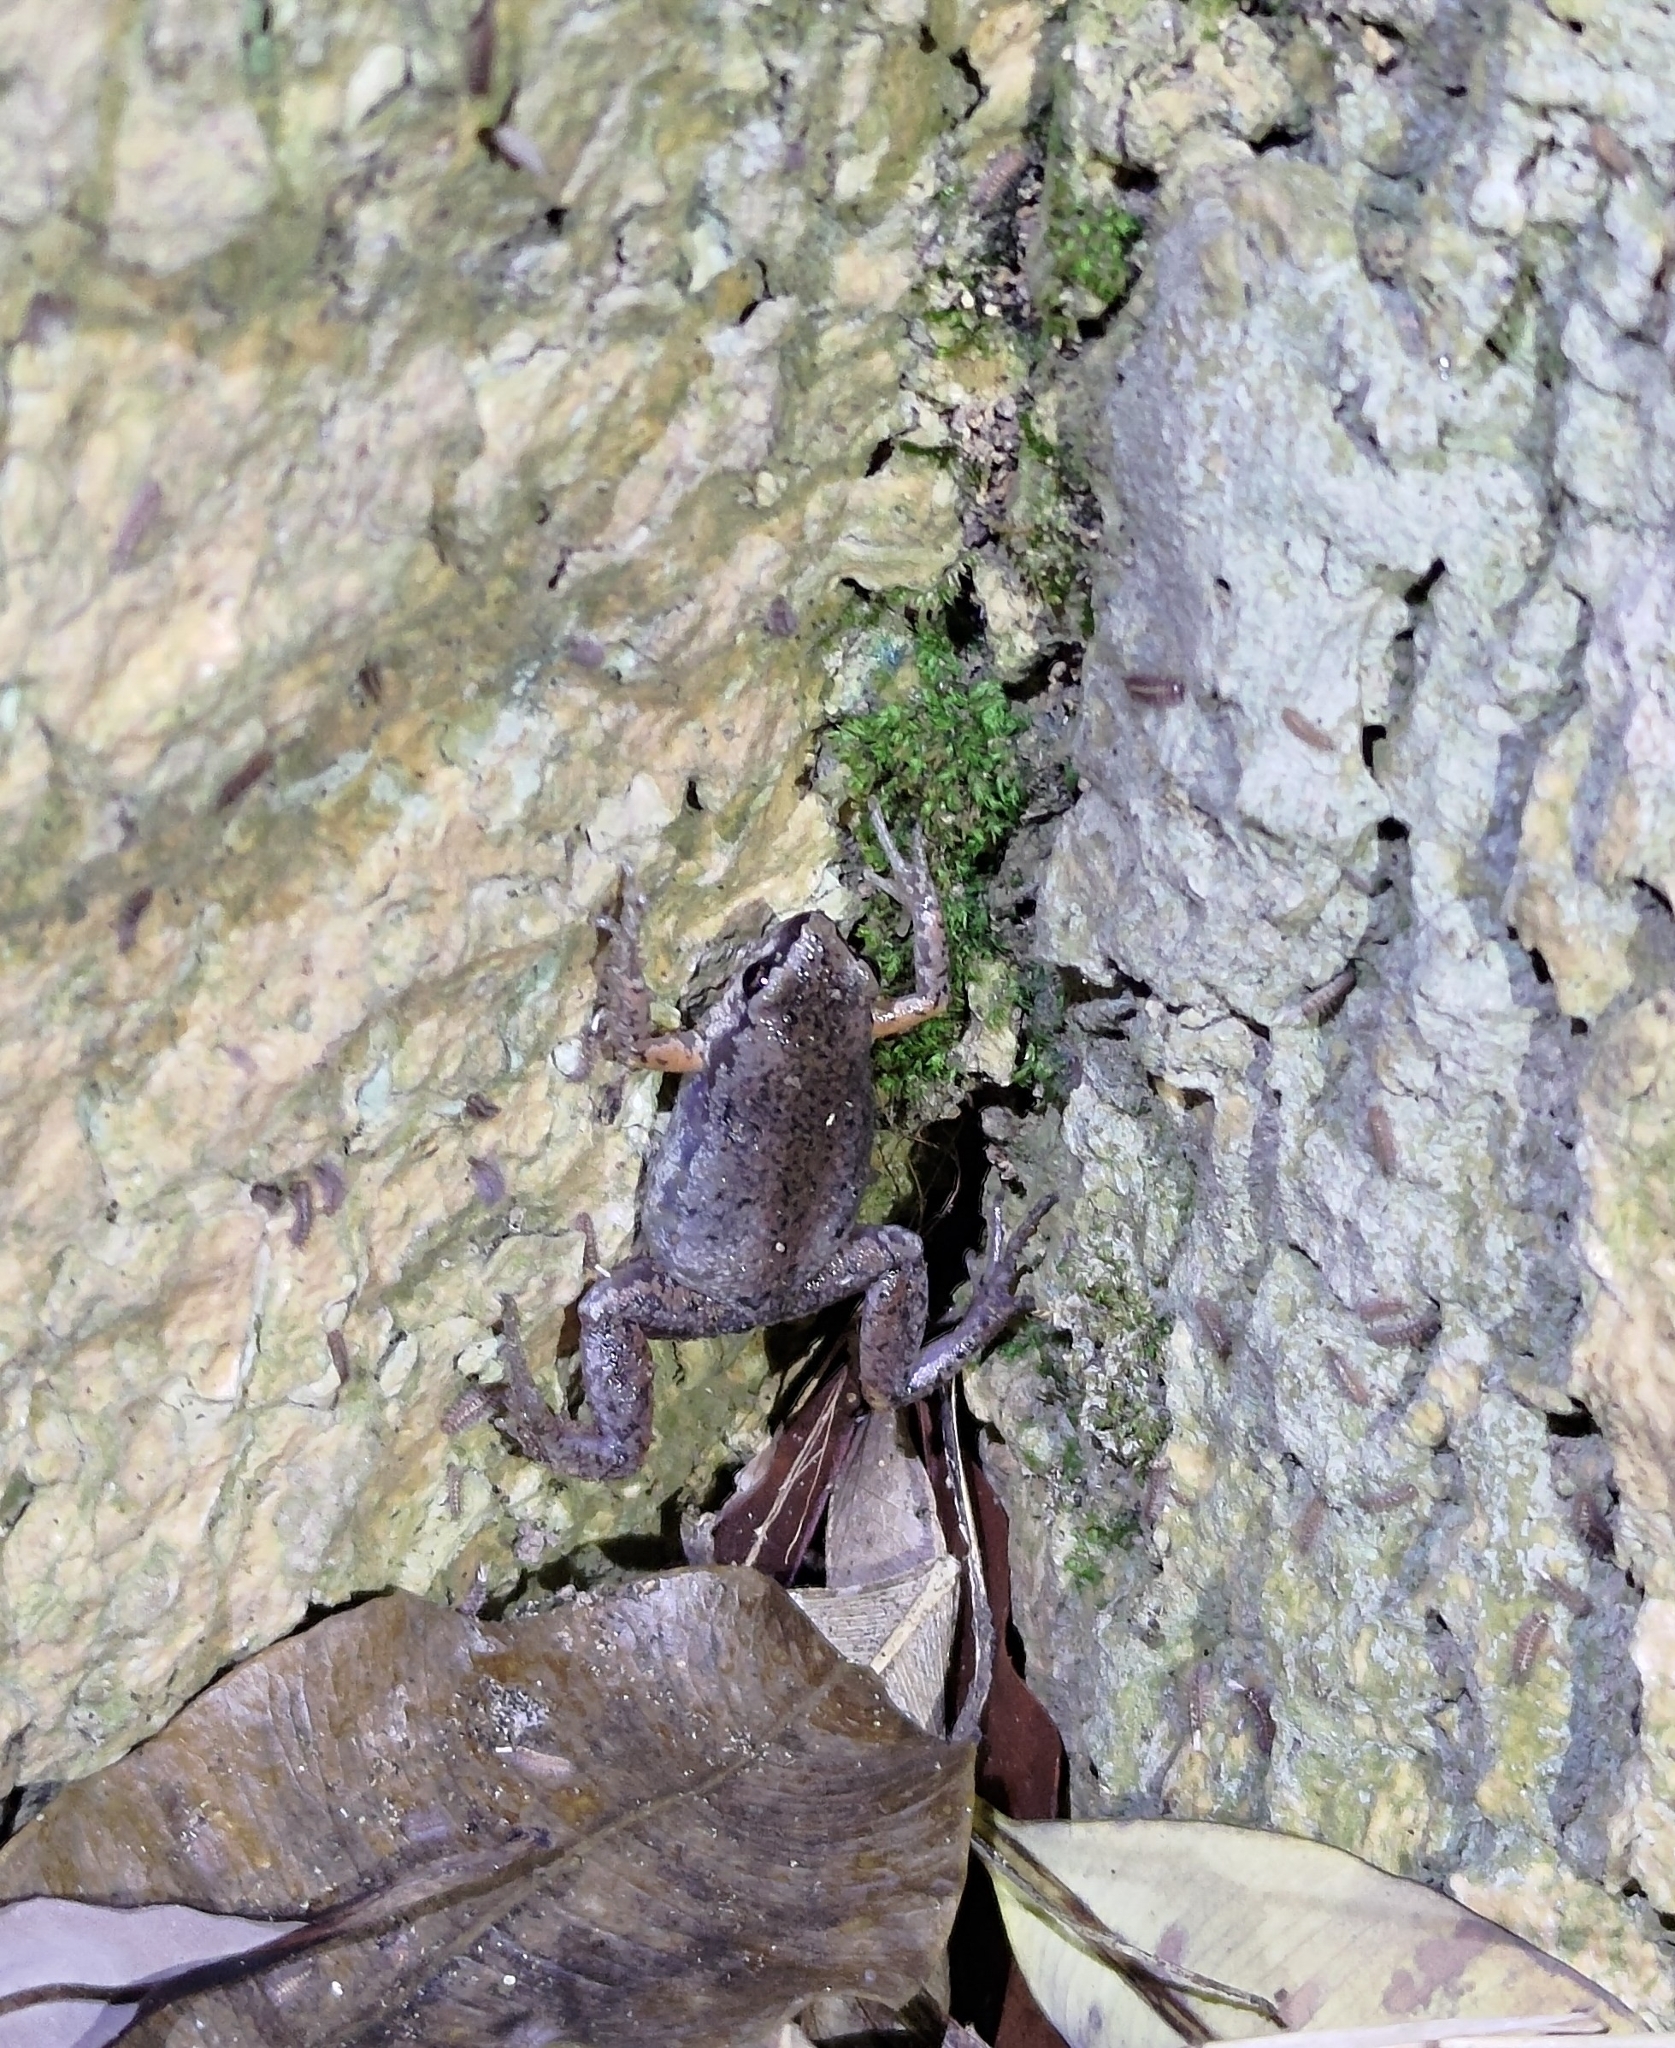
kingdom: Animalia
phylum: Chordata
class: Amphibia
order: Anura
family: Microhylidae
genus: Micryletta
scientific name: Micryletta steinegeri
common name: Stejneger's paddy frog
